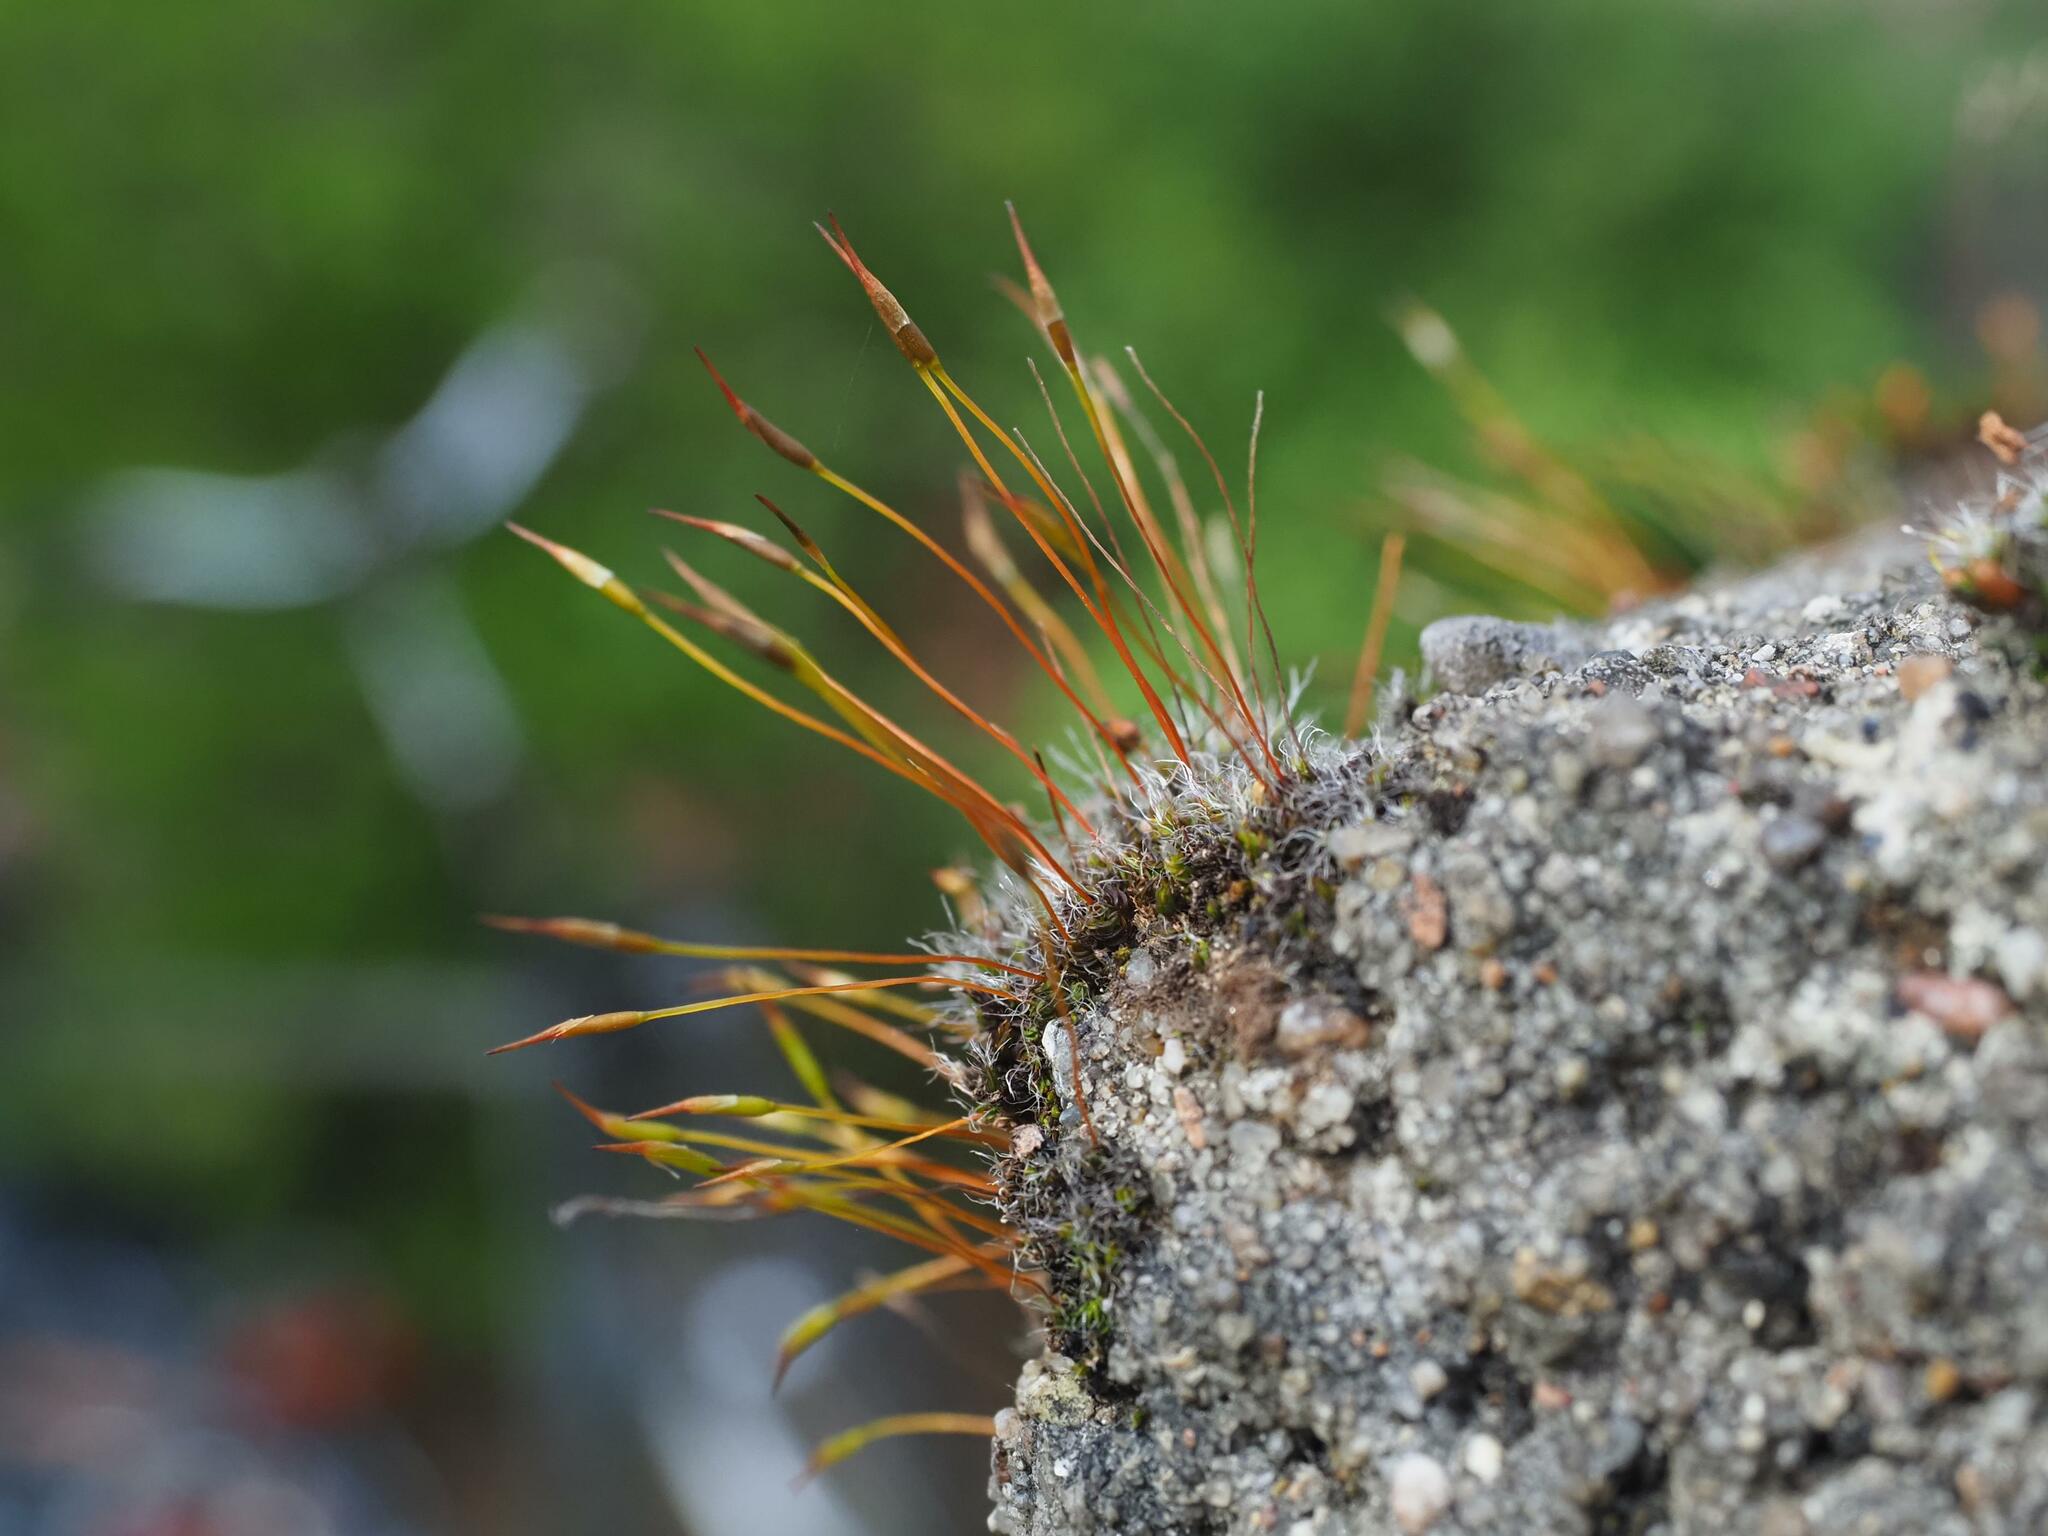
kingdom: Plantae
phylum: Bryophyta
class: Bryopsida
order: Pottiales
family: Pottiaceae
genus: Tortula
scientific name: Tortula muralis
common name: Wall screw-moss
